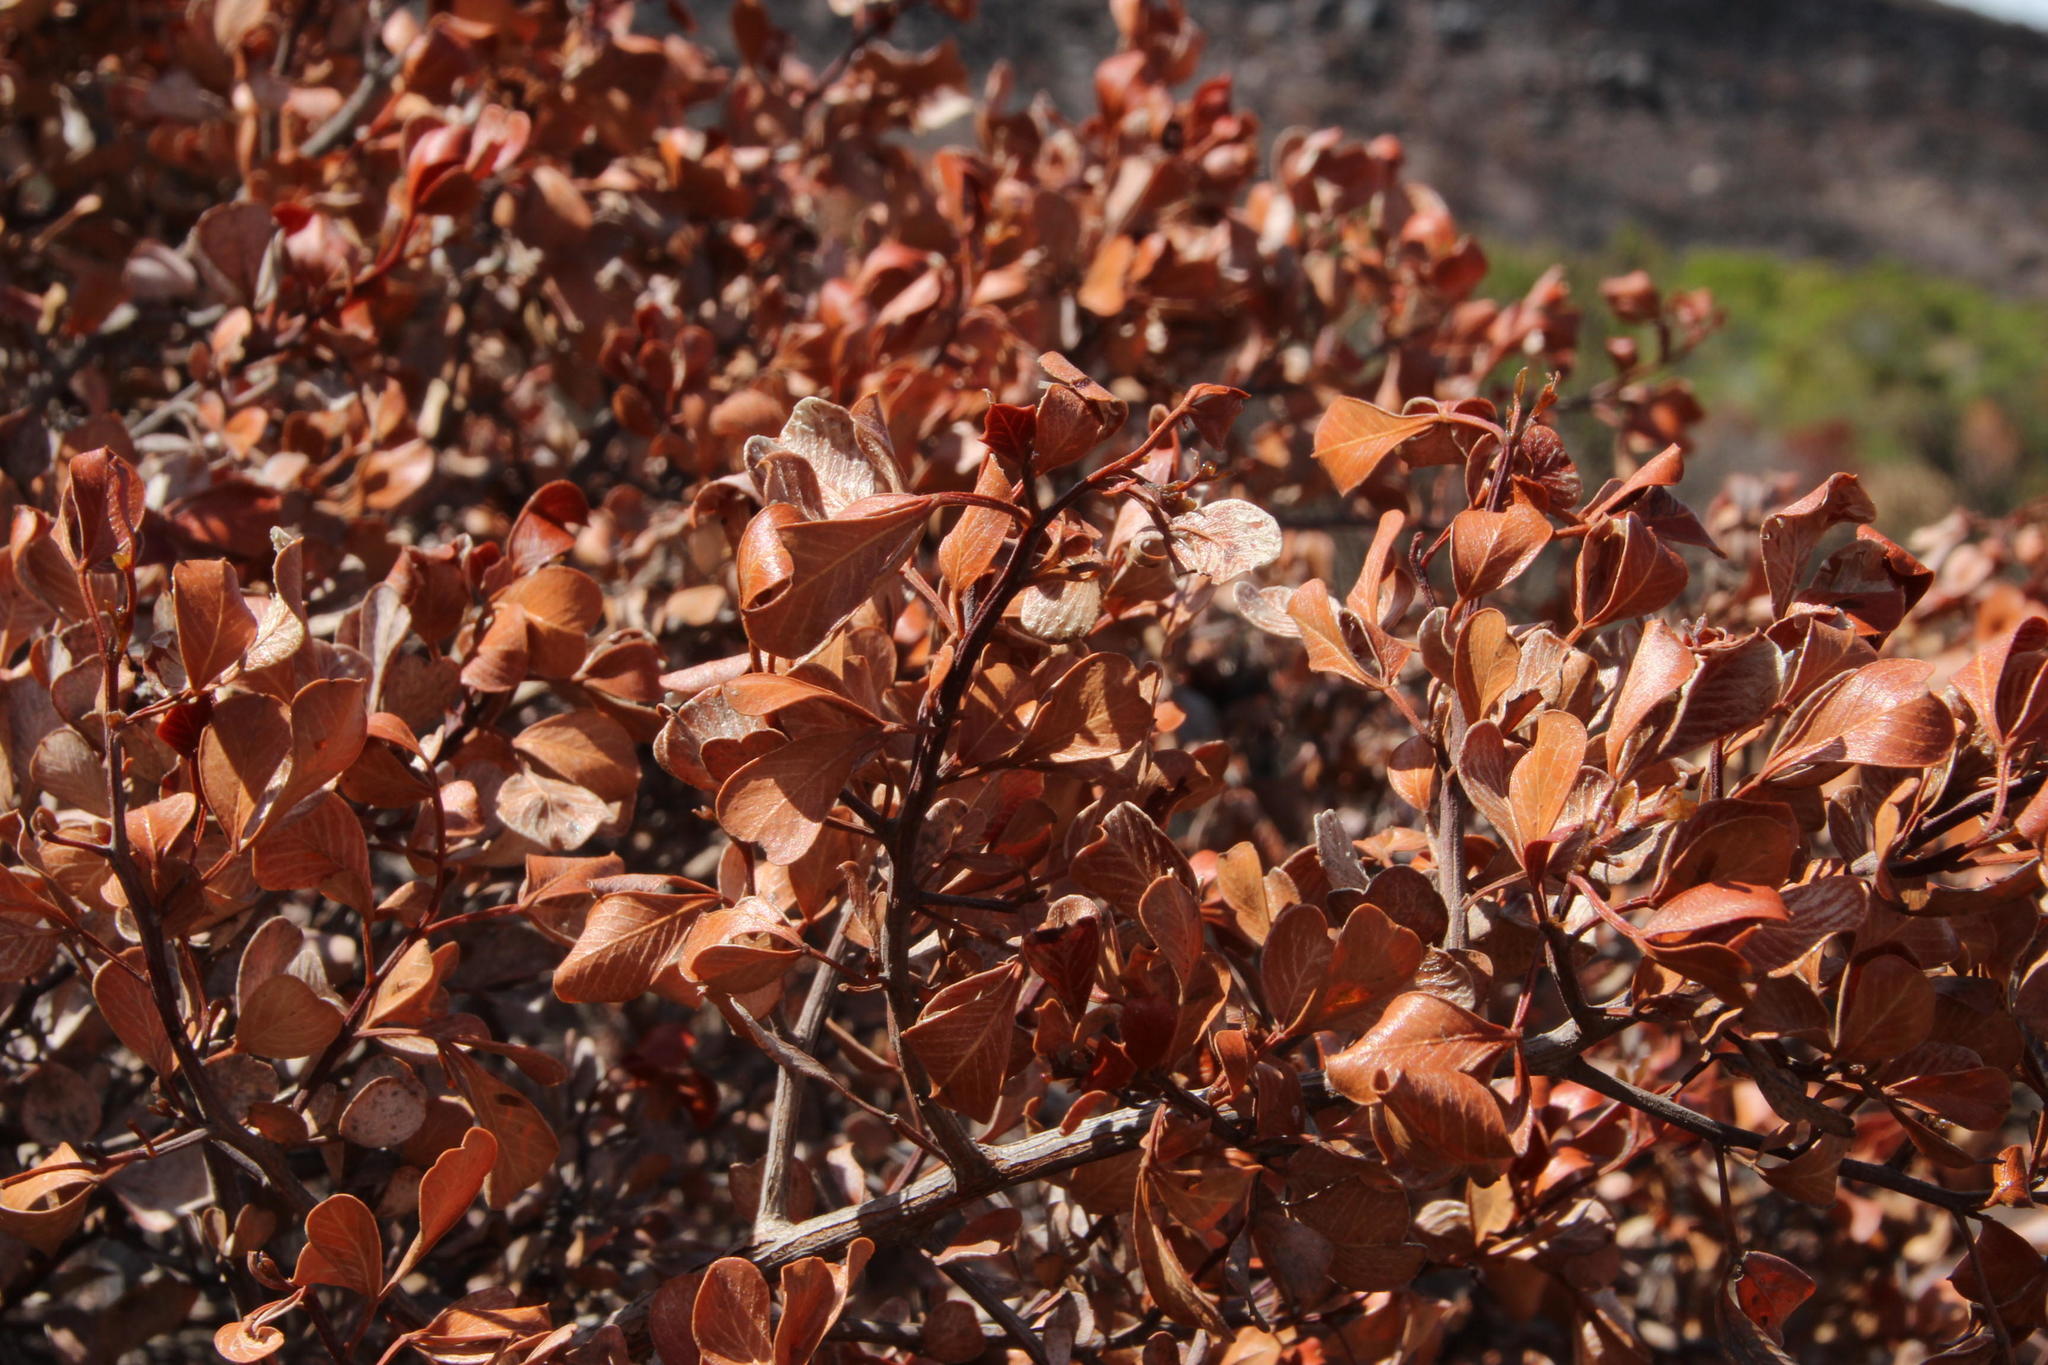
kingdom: Plantae
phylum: Tracheophyta
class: Magnoliopsida
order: Sapindales
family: Anacardiaceae
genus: Searsia
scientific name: Searsia glauca
